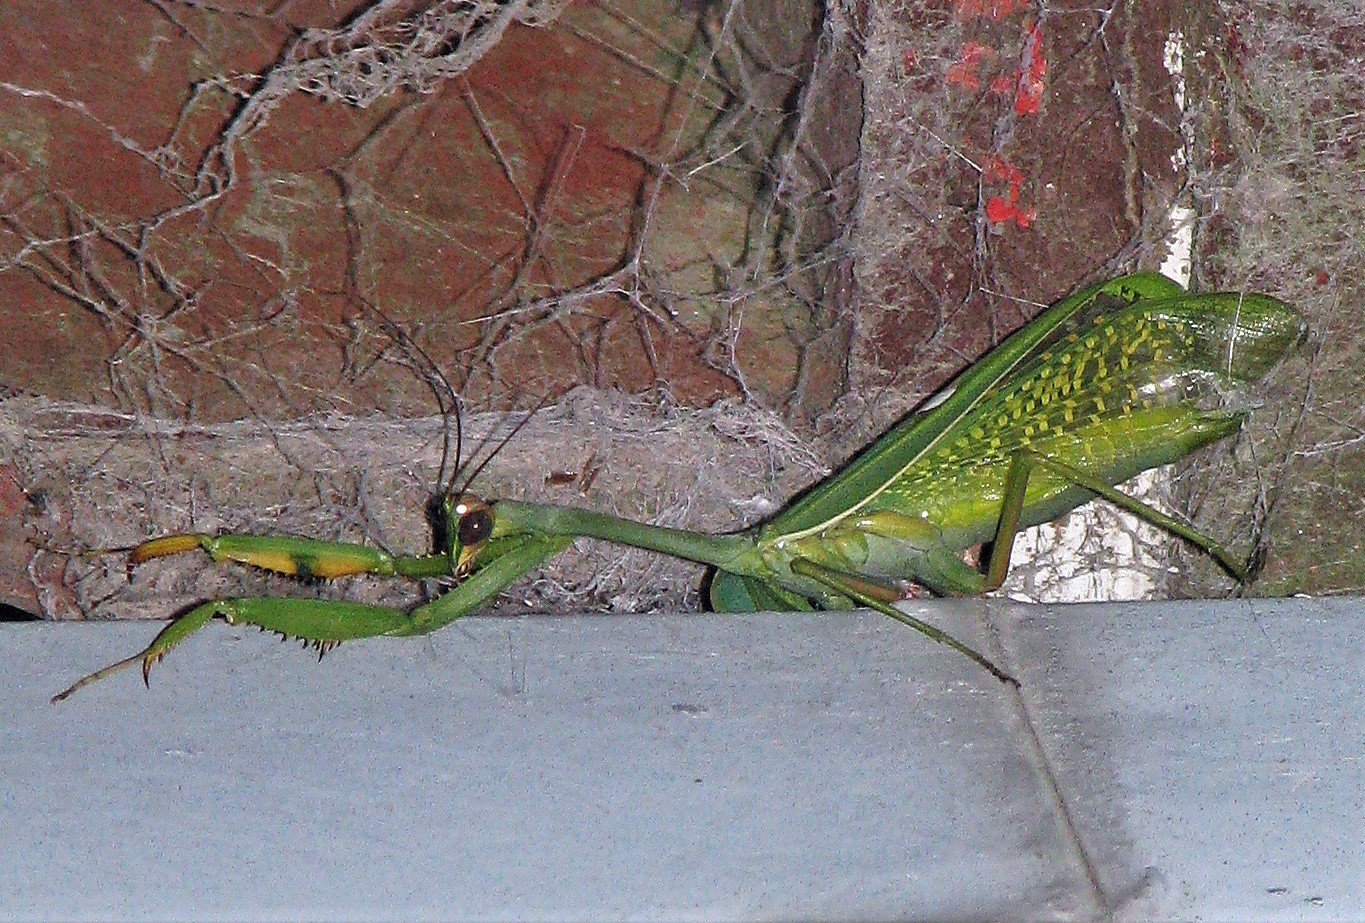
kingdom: Animalia
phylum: Arthropoda
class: Insecta
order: Mantodea
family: Mantidae
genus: Stagmatoptera
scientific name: Stagmatoptera hyaloptera
